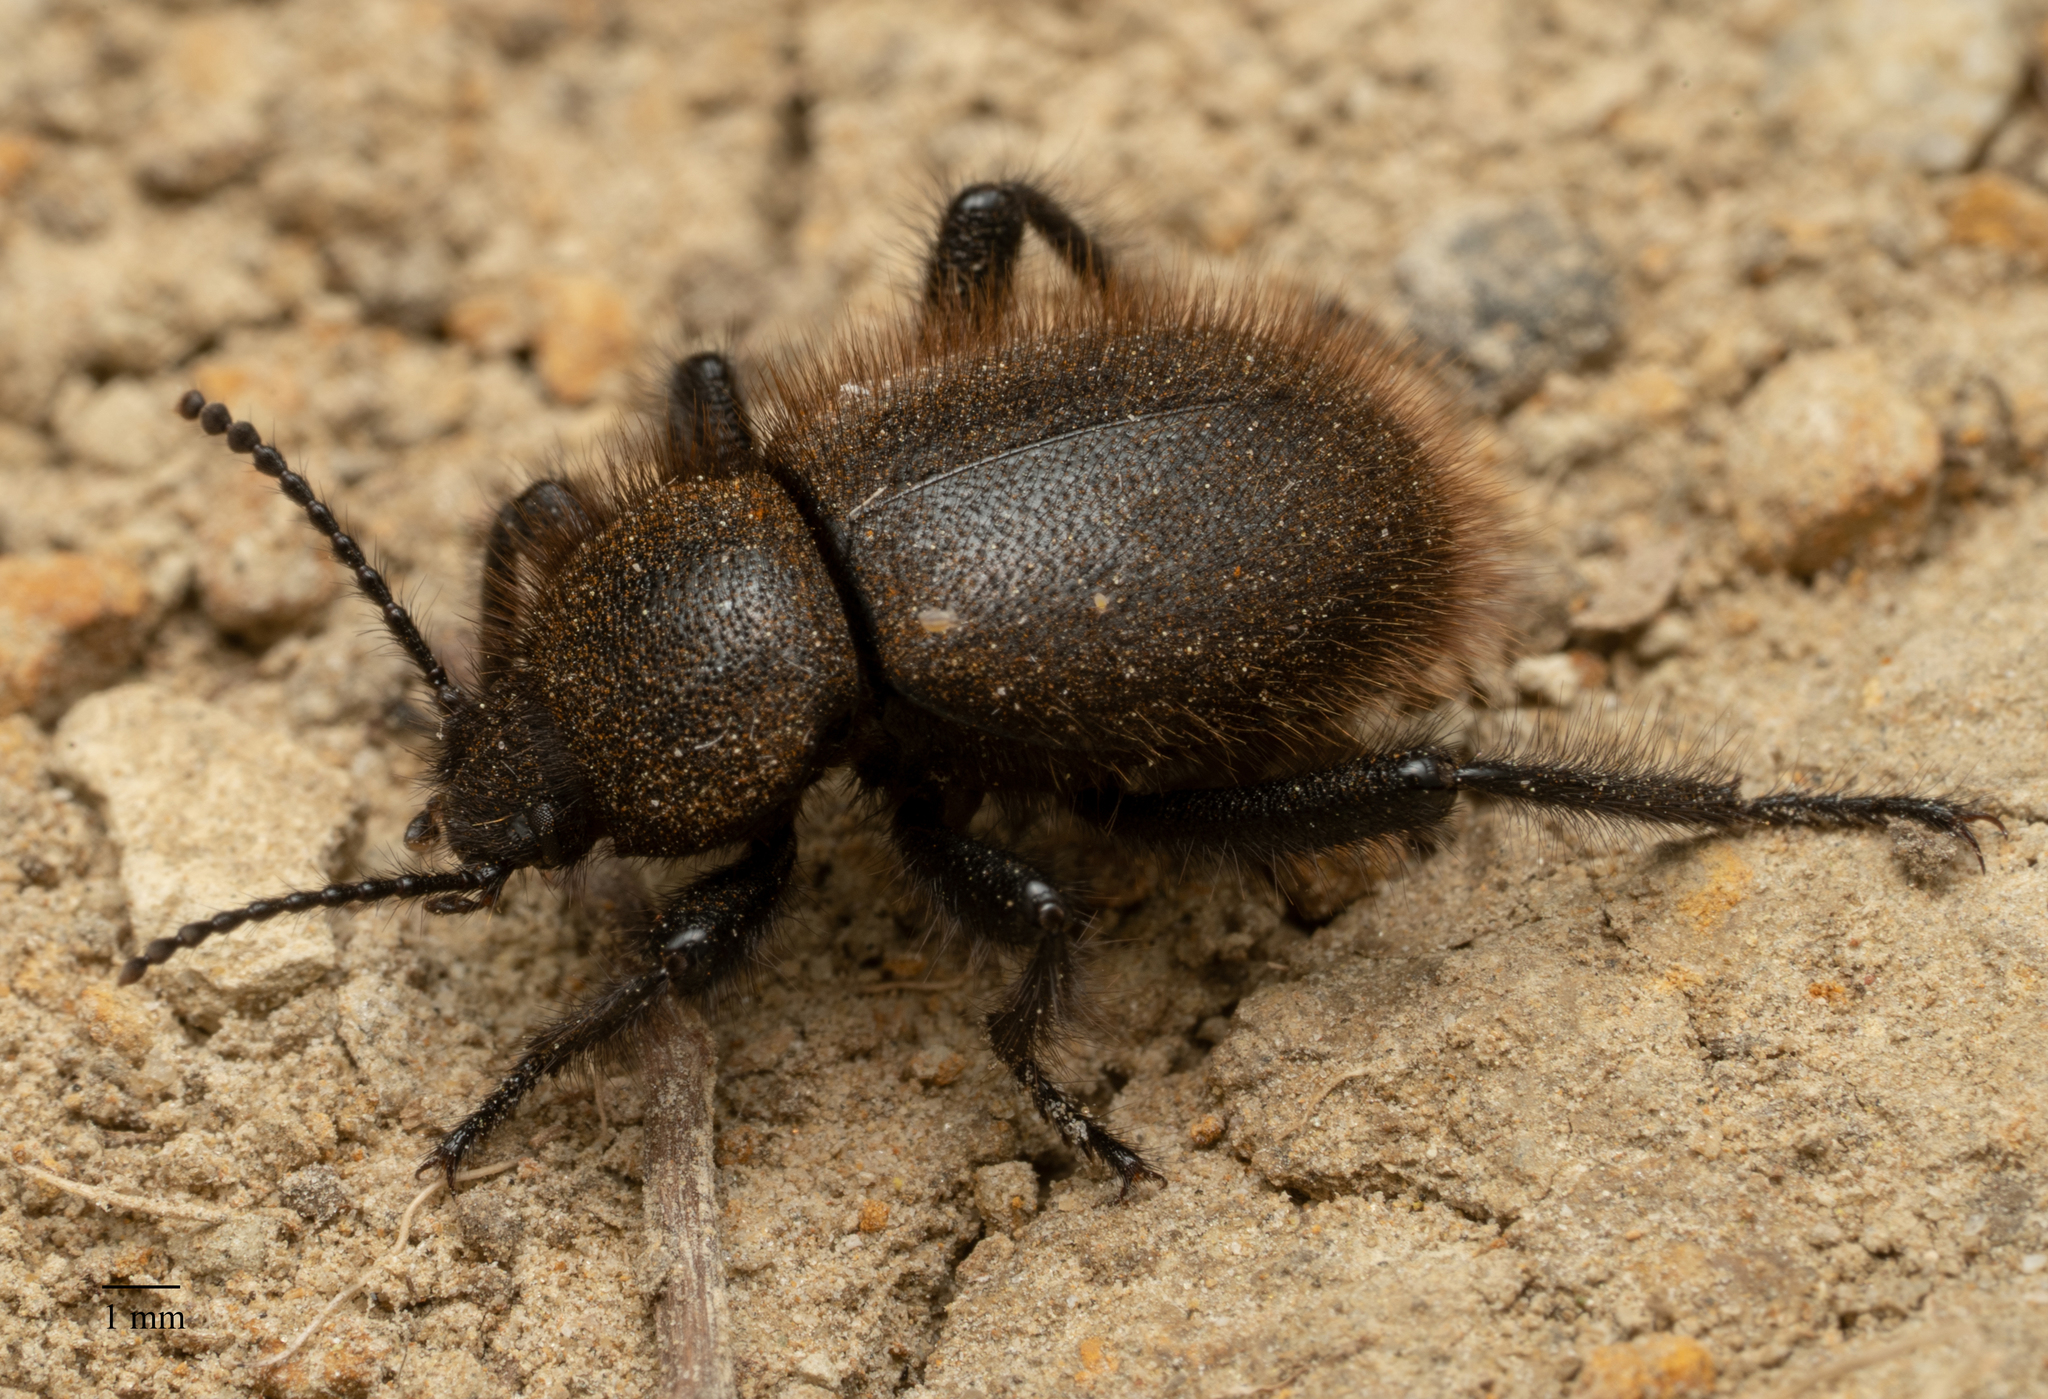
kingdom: Animalia
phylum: Arthropoda
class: Insecta
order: Coleoptera
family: Tenebrionidae
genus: Eleodes
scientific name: Eleodes osculans
